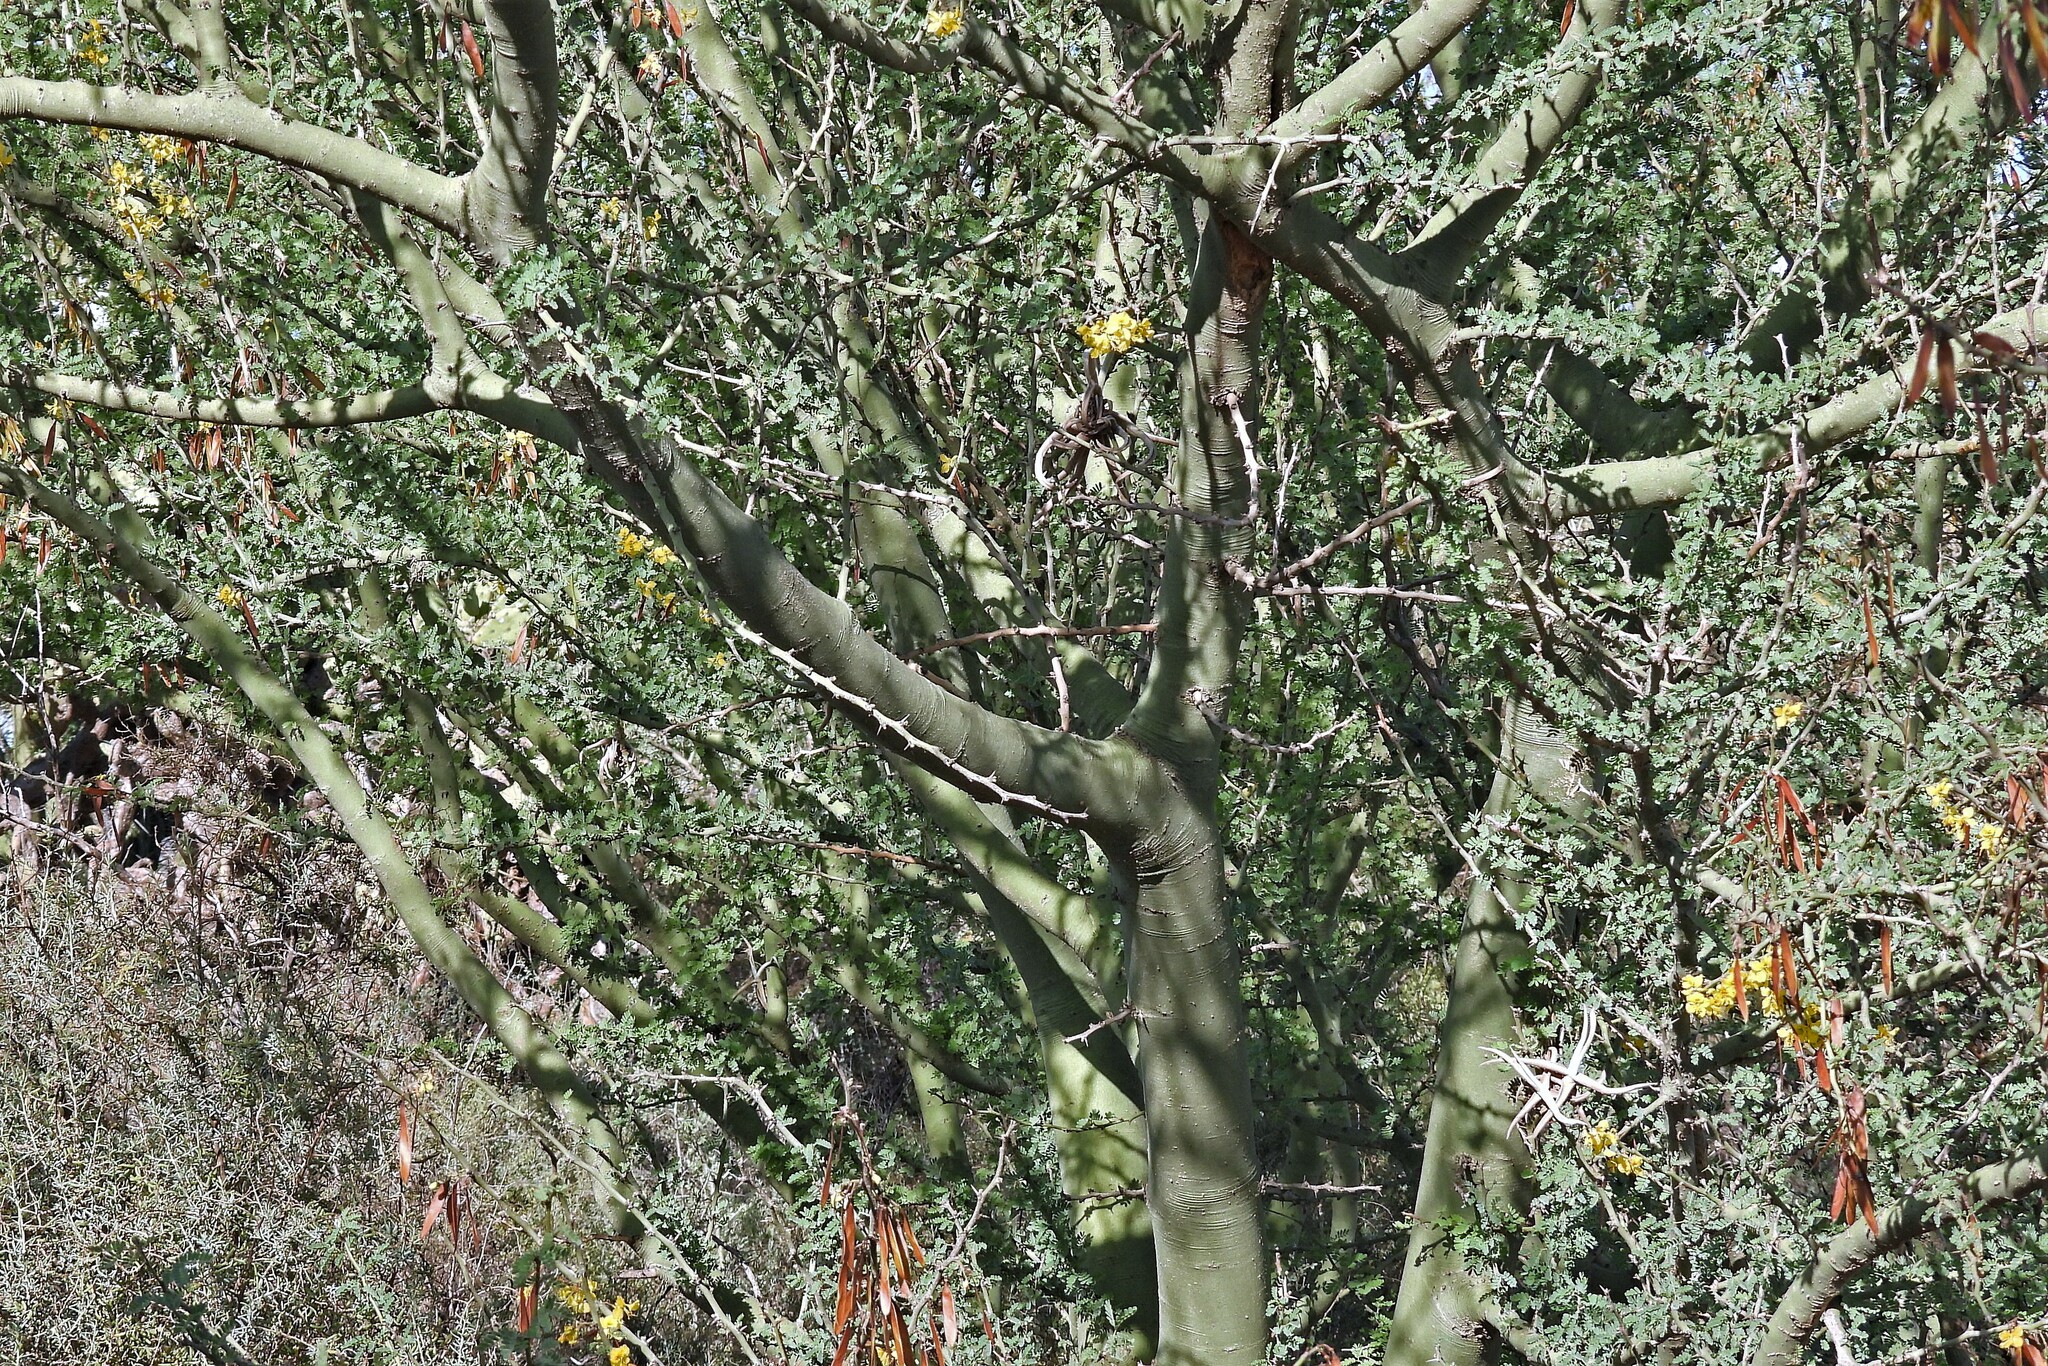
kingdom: Plantae
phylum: Tracheophyta
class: Magnoliopsida
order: Fabales
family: Fabaceae
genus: Parkinsonia
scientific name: Parkinsonia praecox
